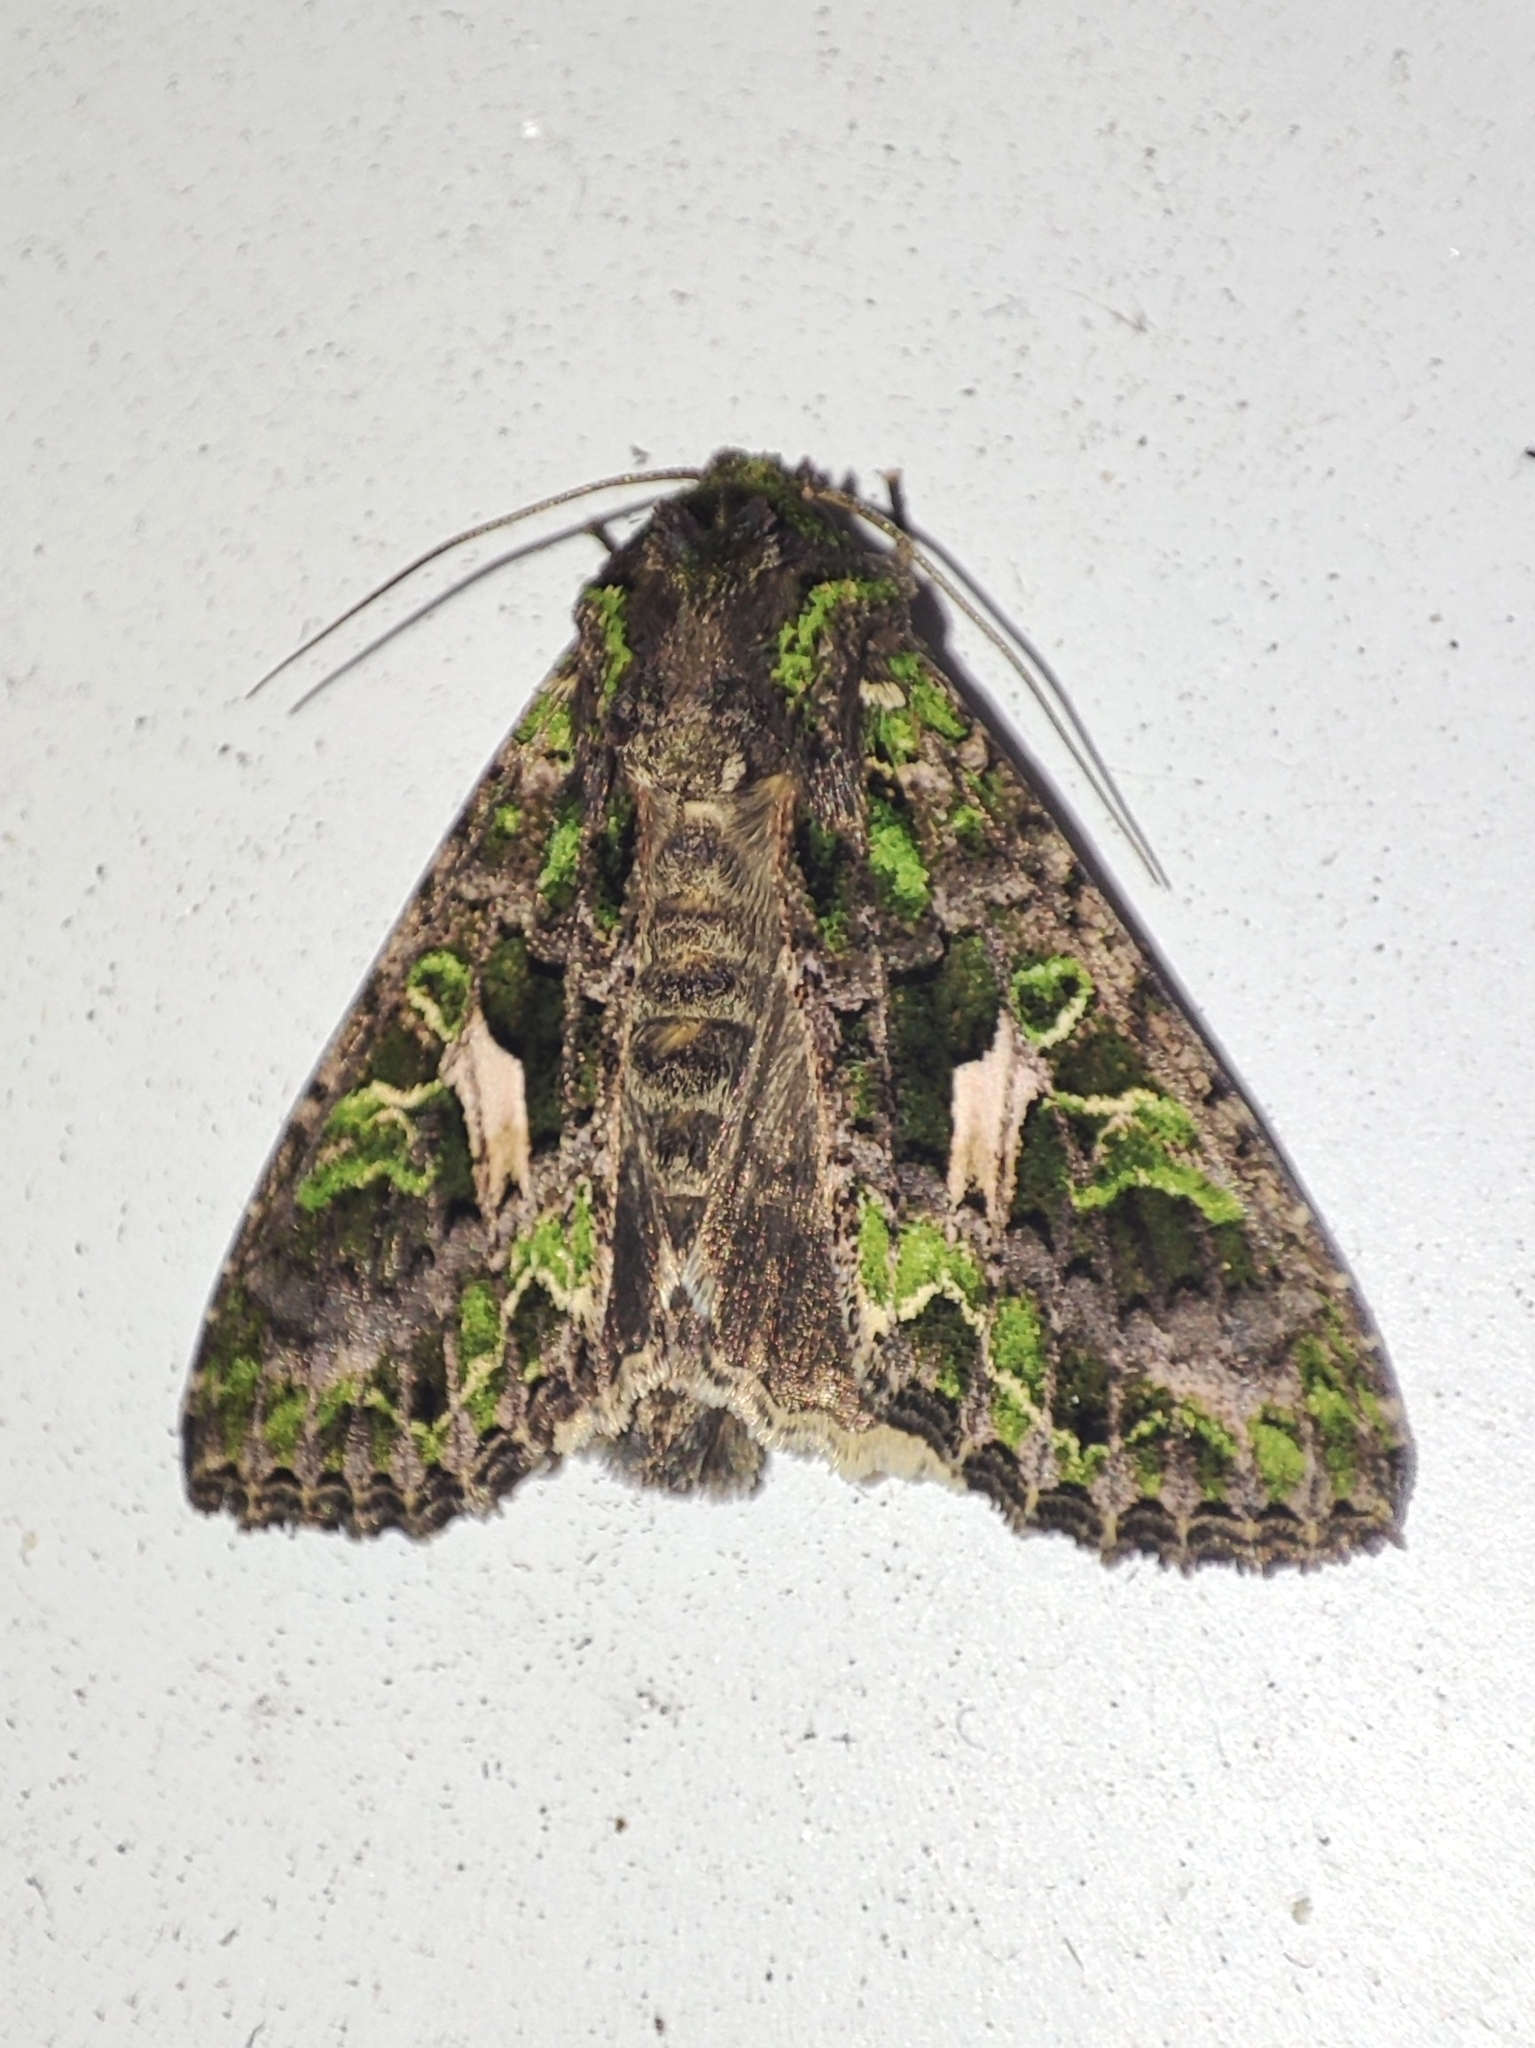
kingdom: Animalia
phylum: Arthropoda
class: Insecta
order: Lepidoptera
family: Noctuidae
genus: Trachea
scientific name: Trachea atriplicis
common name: Orache moth
